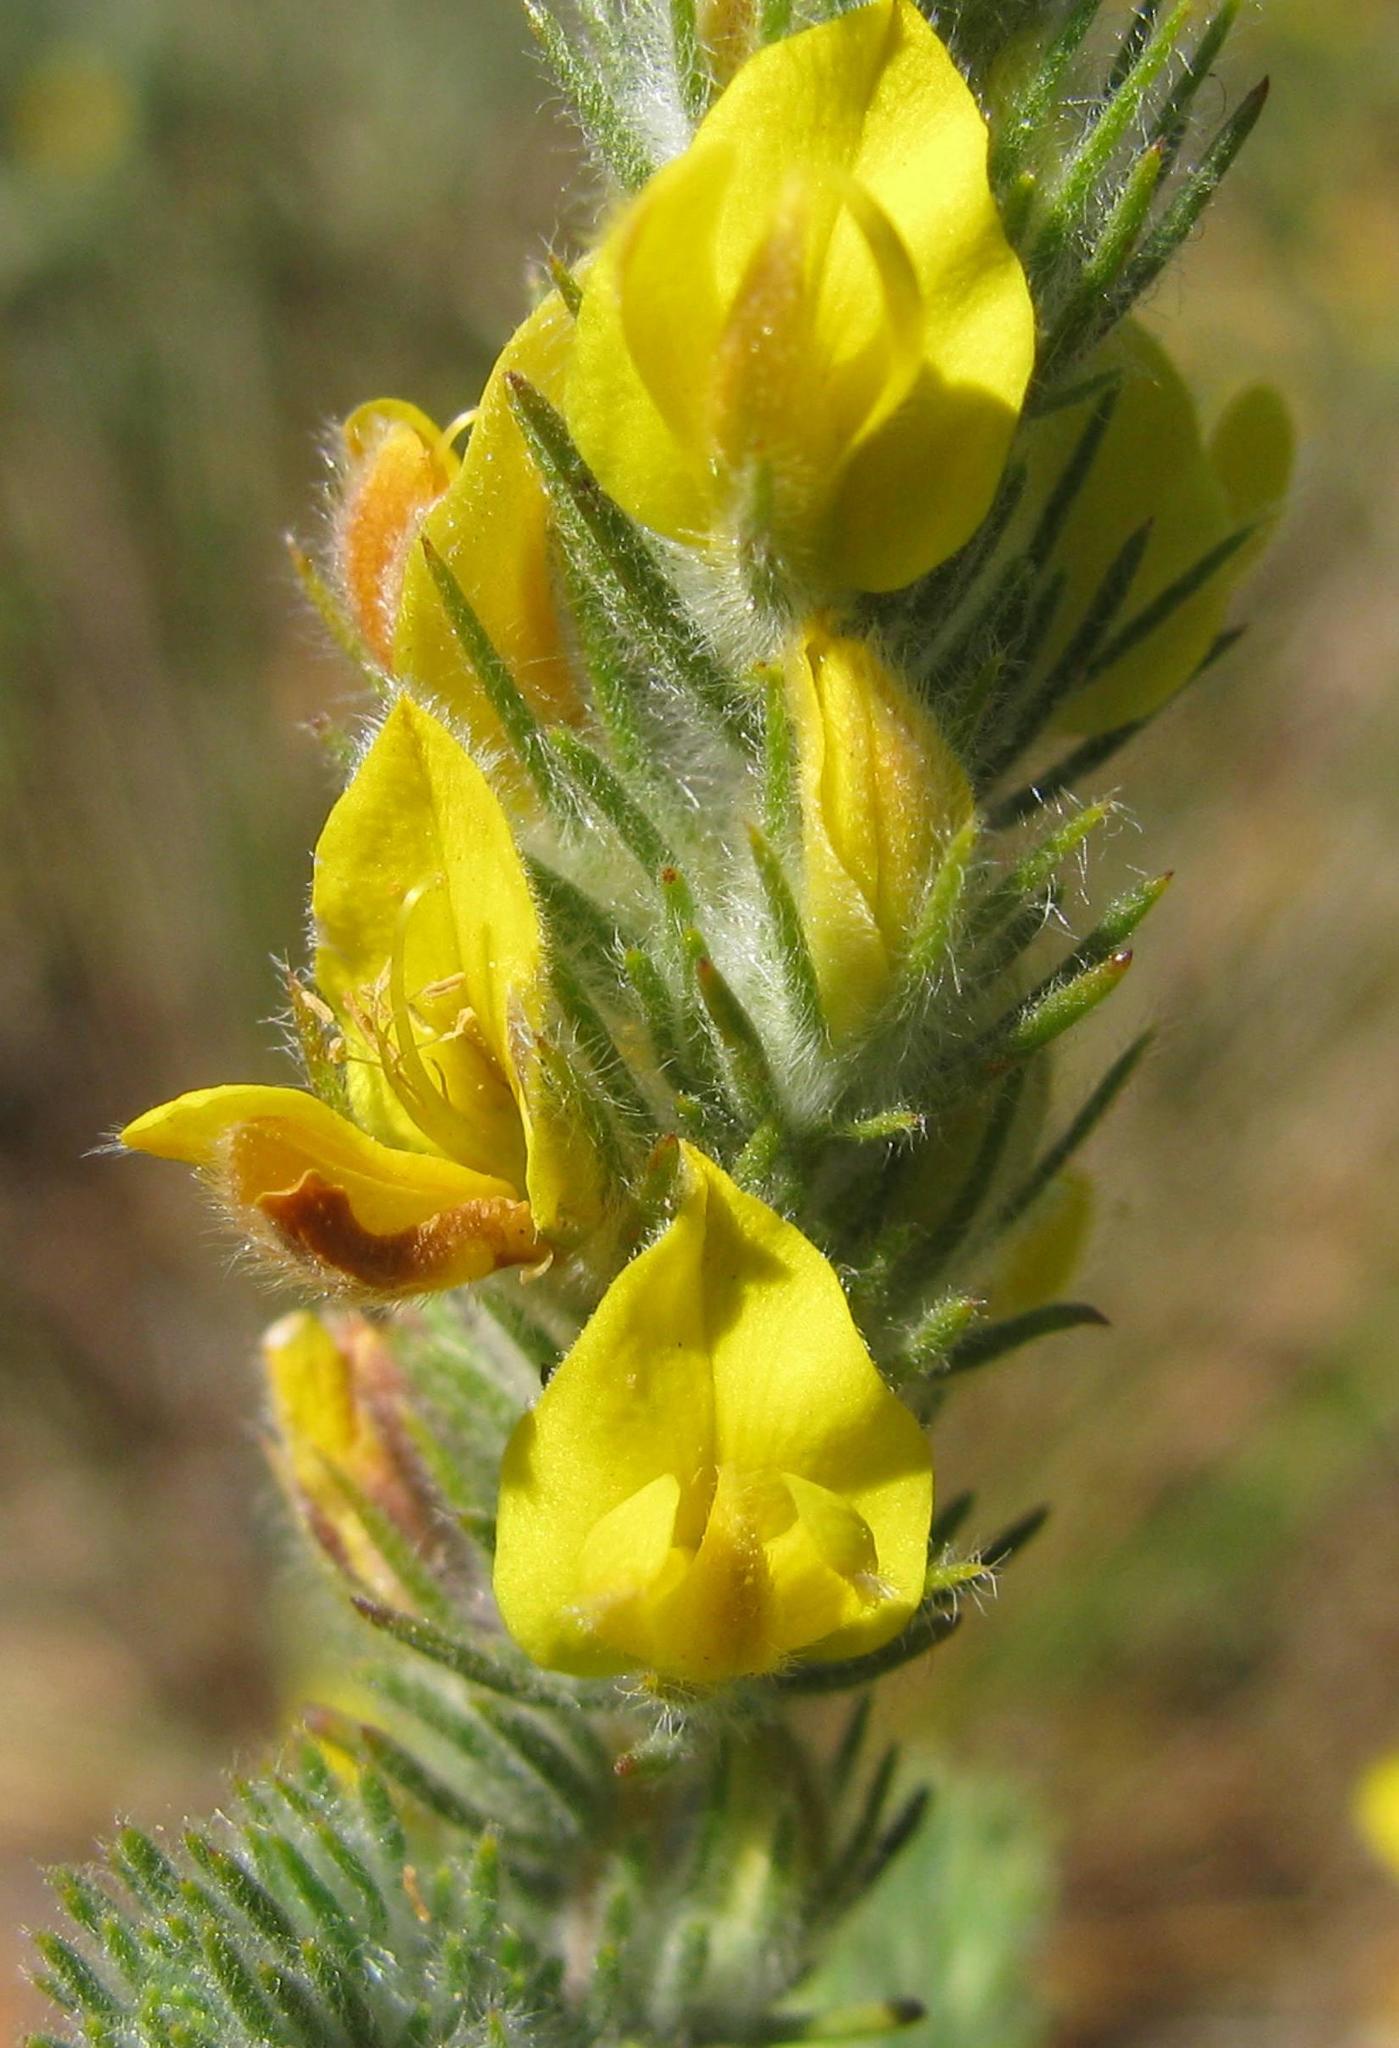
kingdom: Plantae
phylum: Tracheophyta
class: Magnoliopsida
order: Fabales
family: Fabaceae
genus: Aspalathus
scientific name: Aspalathus puberula
